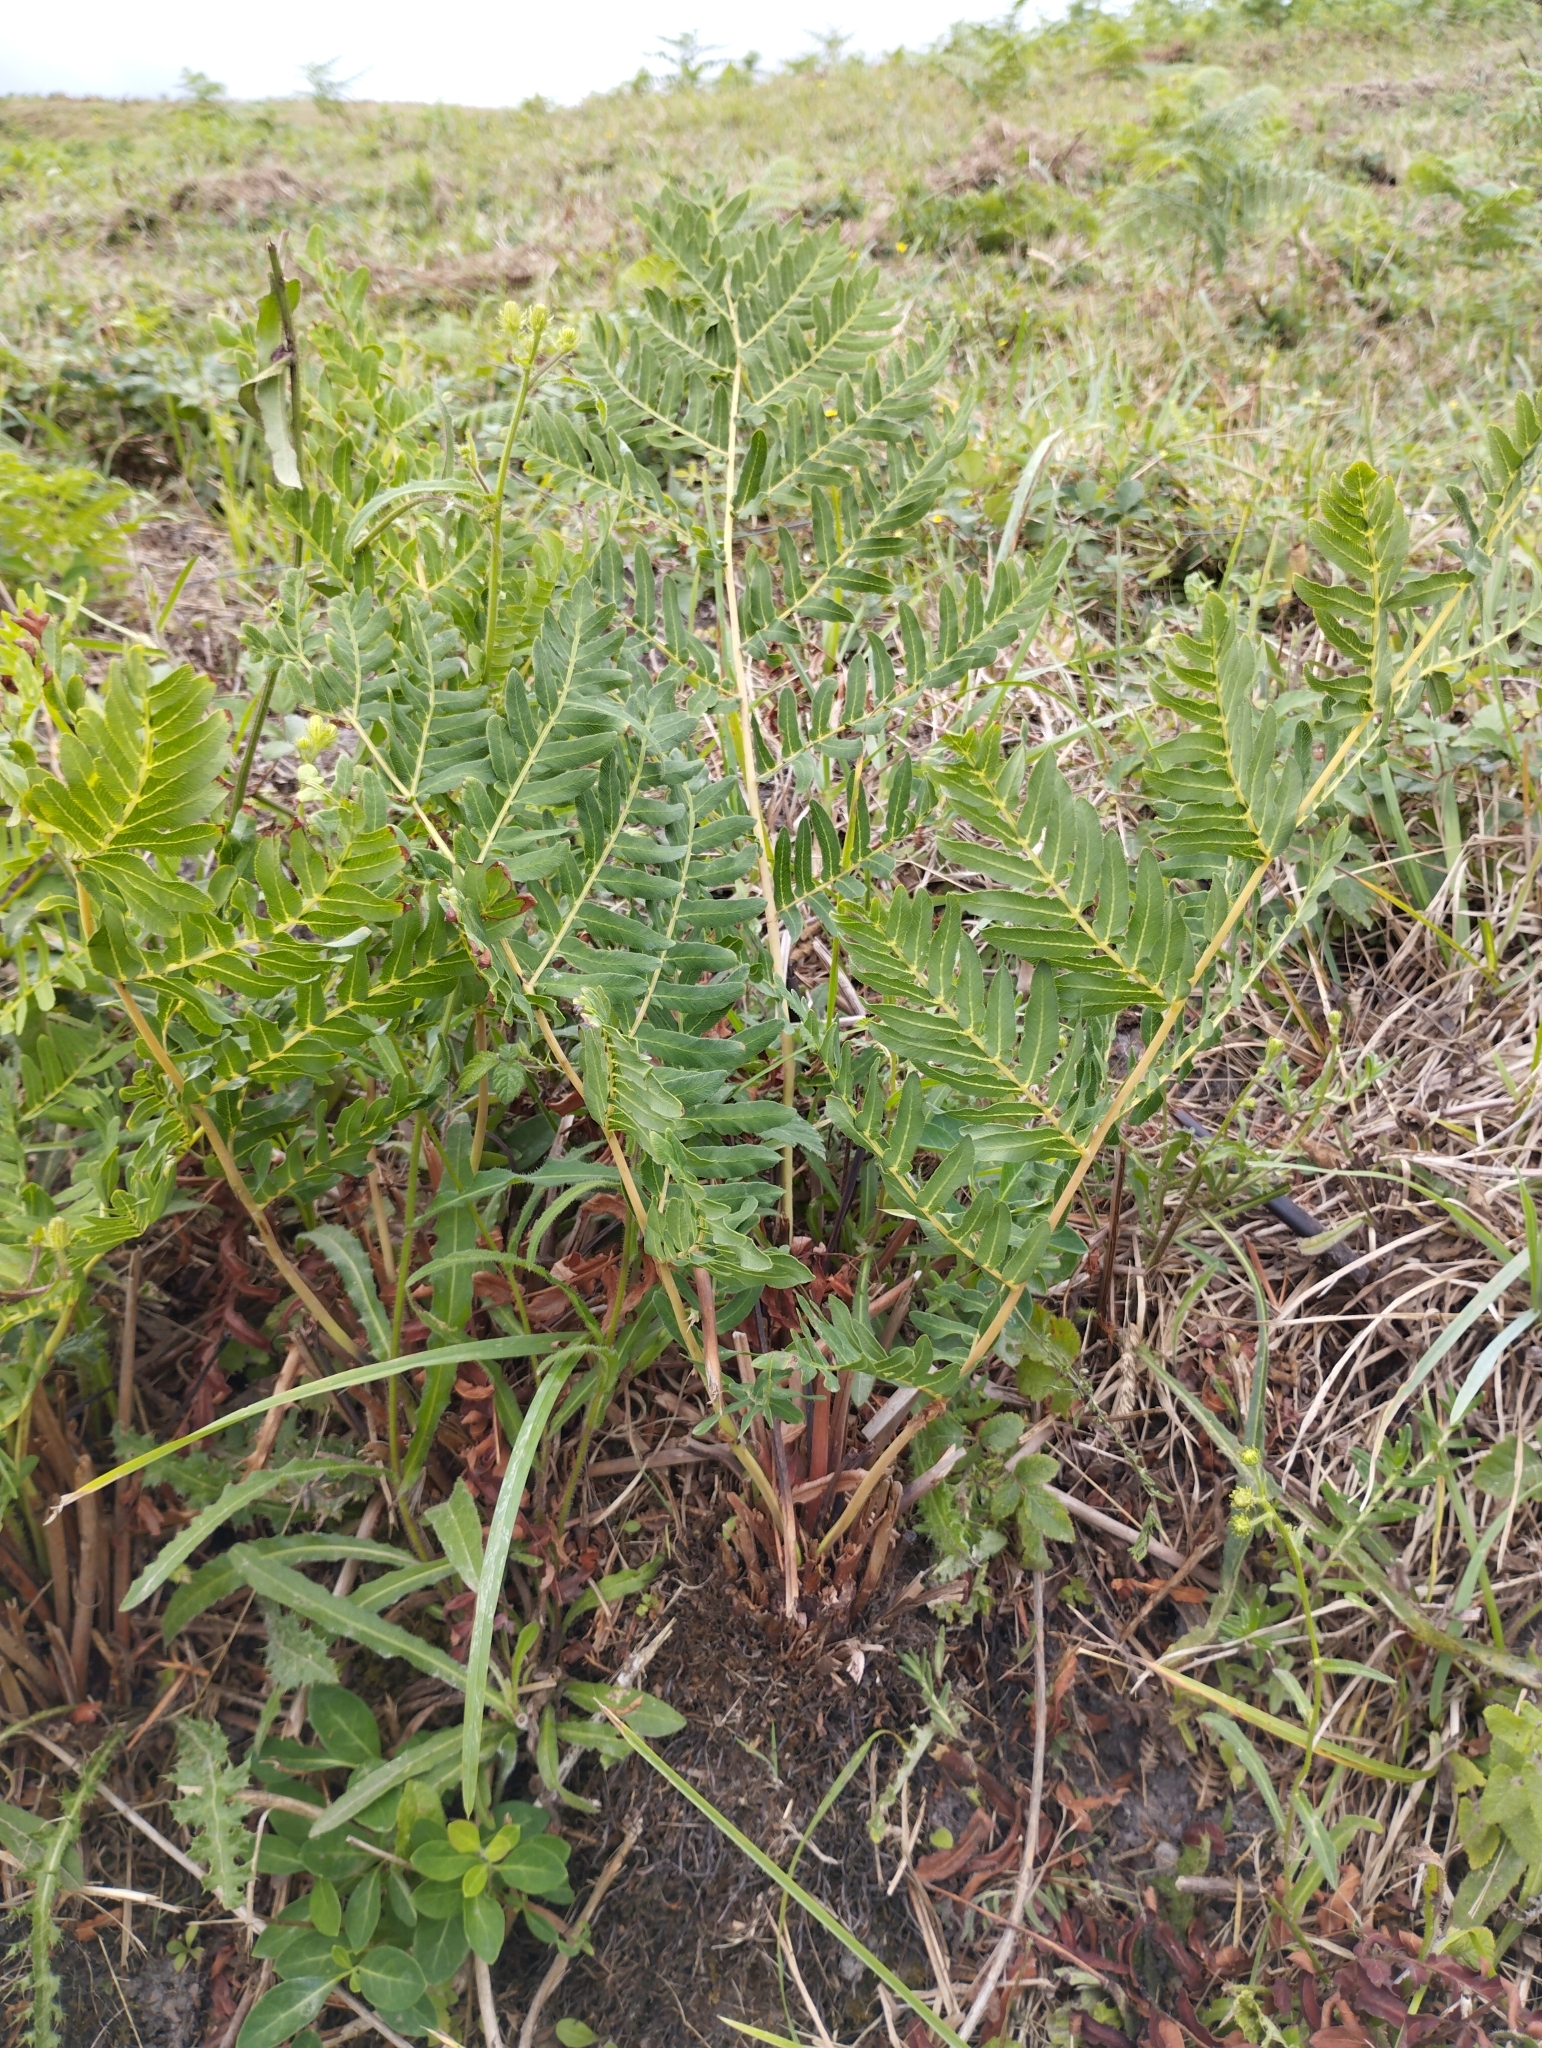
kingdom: Plantae
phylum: Tracheophyta
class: Polypodiopsida
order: Osmundales
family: Osmundaceae
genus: Osmunda
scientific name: Osmunda regalis
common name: Royal fern
